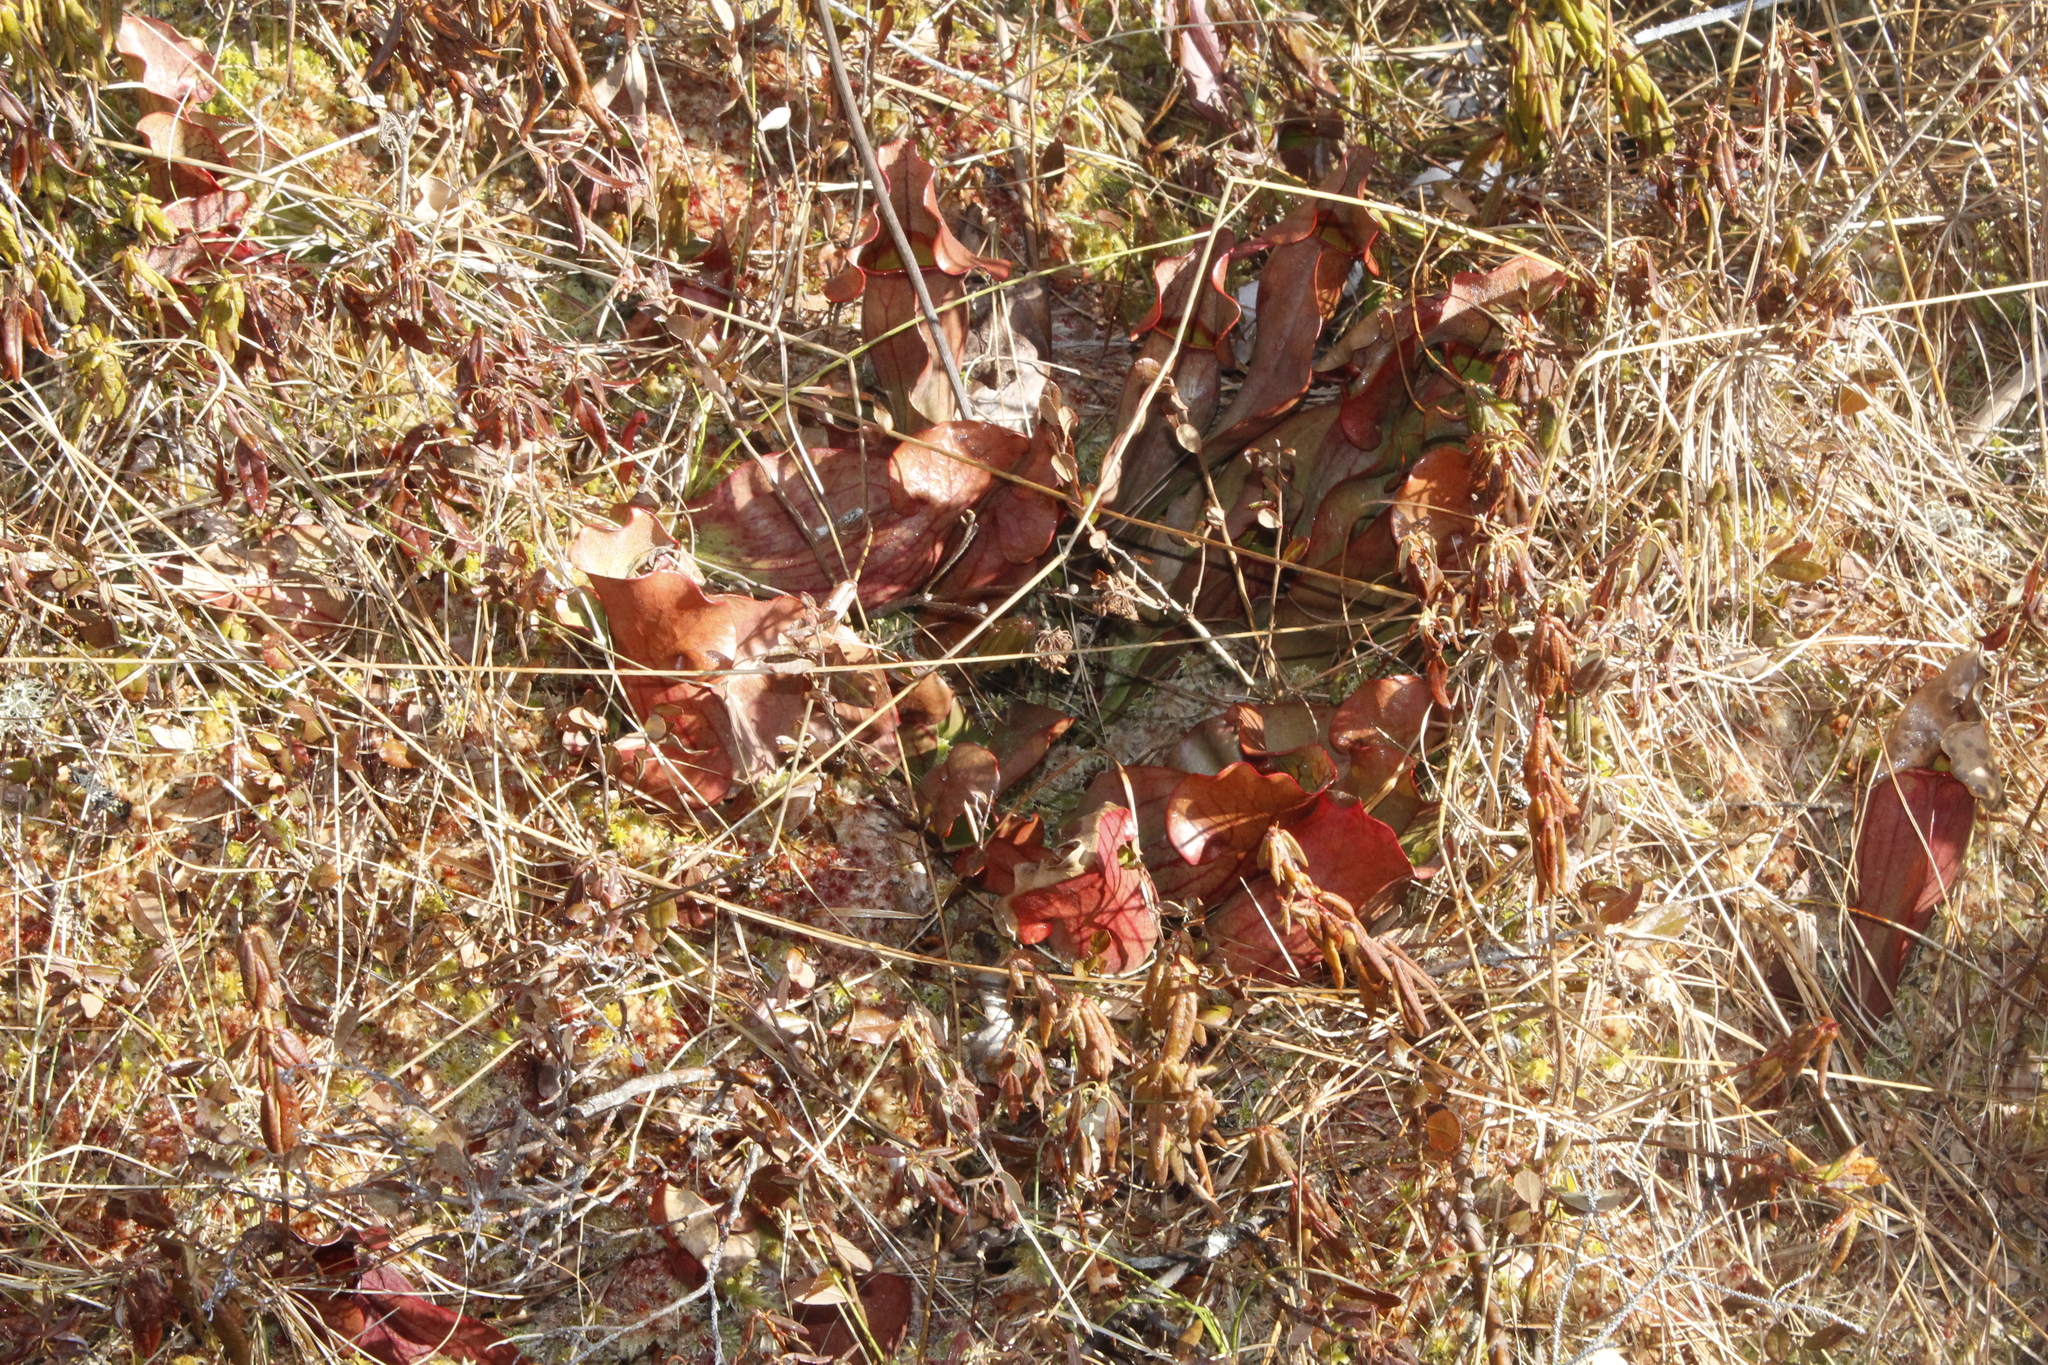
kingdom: Plantae
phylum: Tracheophyta
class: Magnoliopsida
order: Ericales
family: Sarraceniaceae
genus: Sarracenia
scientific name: Sarracenia purpurea
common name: Pitcherplant
